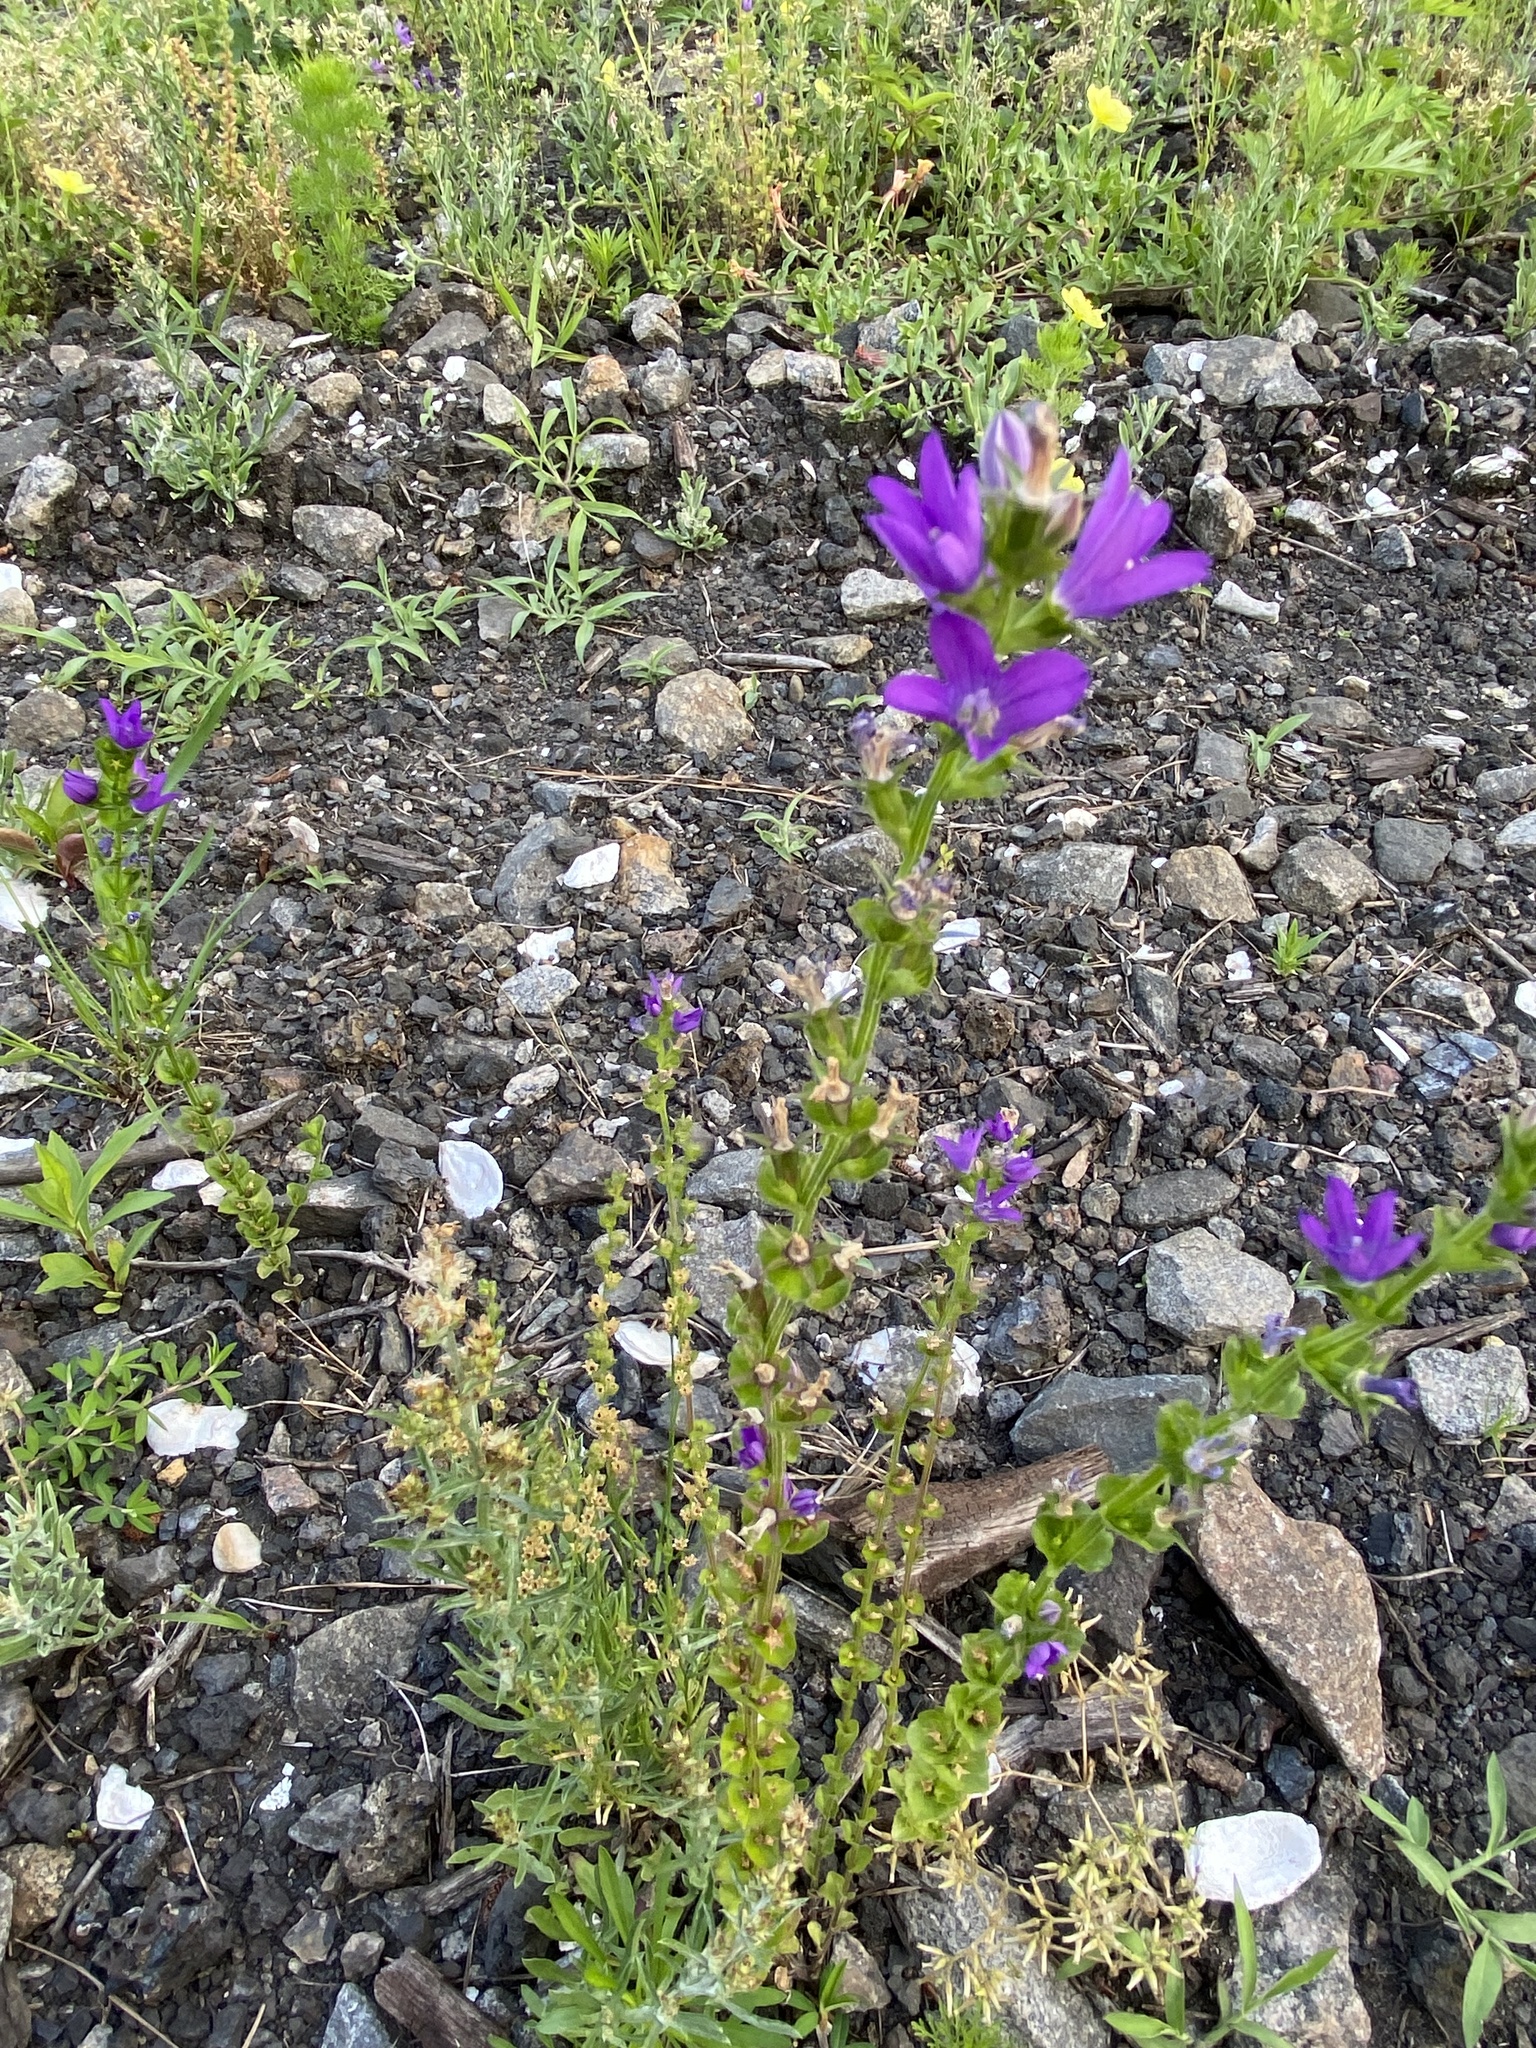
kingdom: Plantae
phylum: Tracheophyta
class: Magnoliopsida
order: Asterales
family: Campanulaceae
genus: Triodanis
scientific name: Triodanis perfoliata
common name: Clasping venus' looking-glass
